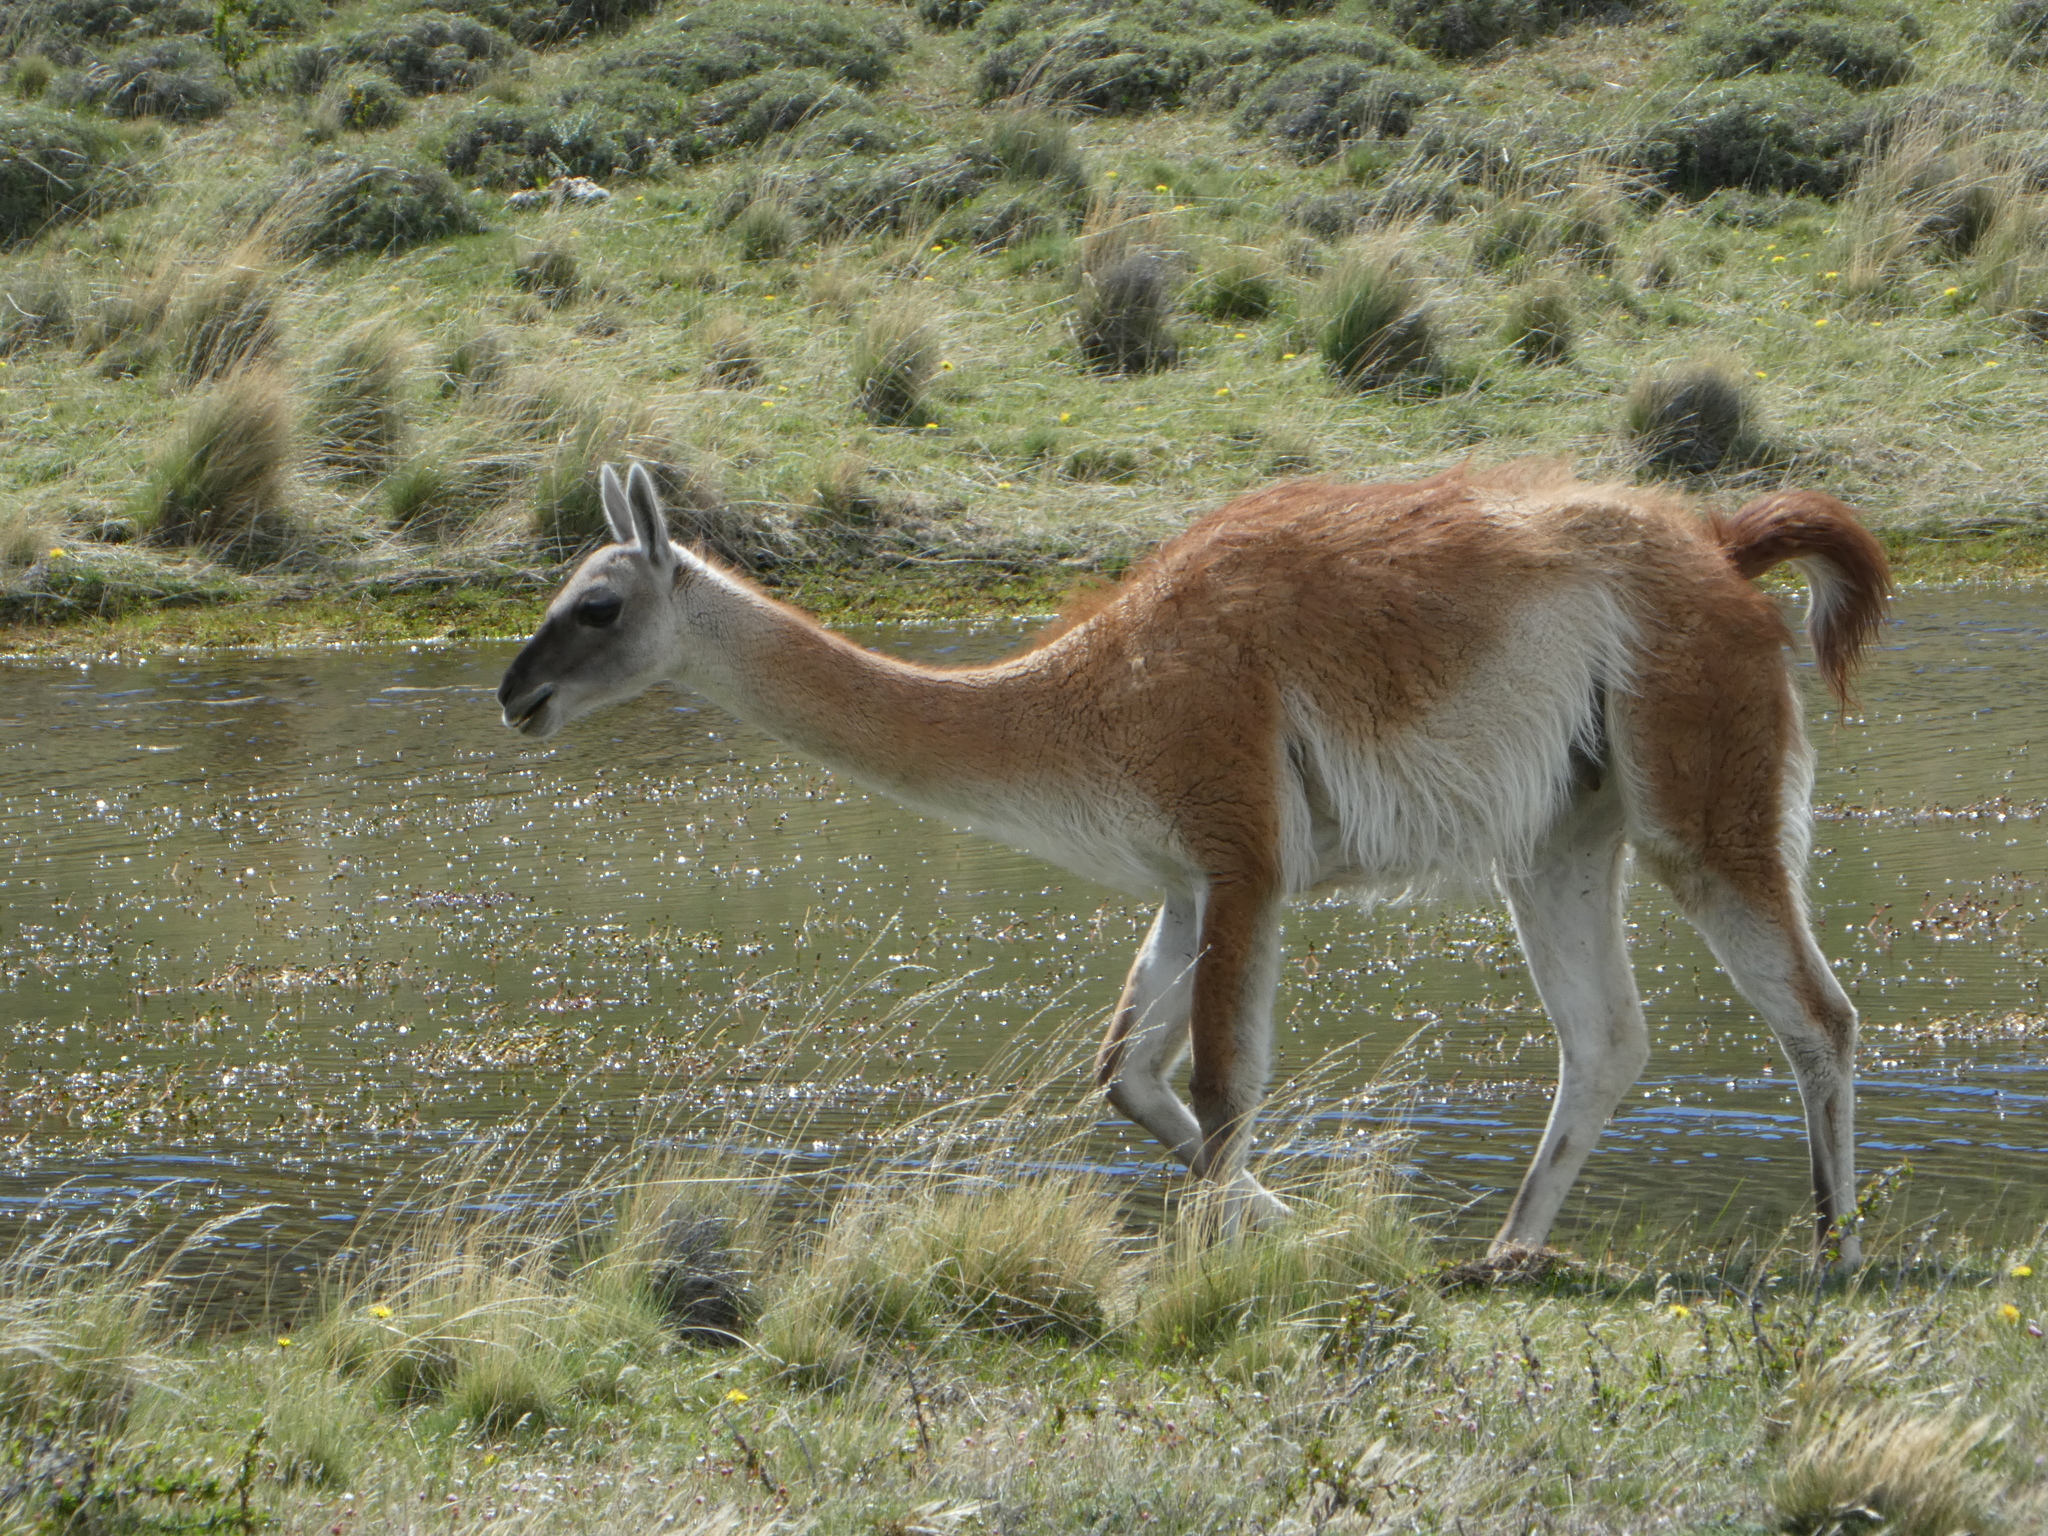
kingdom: Animalia
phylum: Chordata
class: Mammalia
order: Artiodactyla
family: Camelidae
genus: Lama
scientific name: Lama glama
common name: Llama
